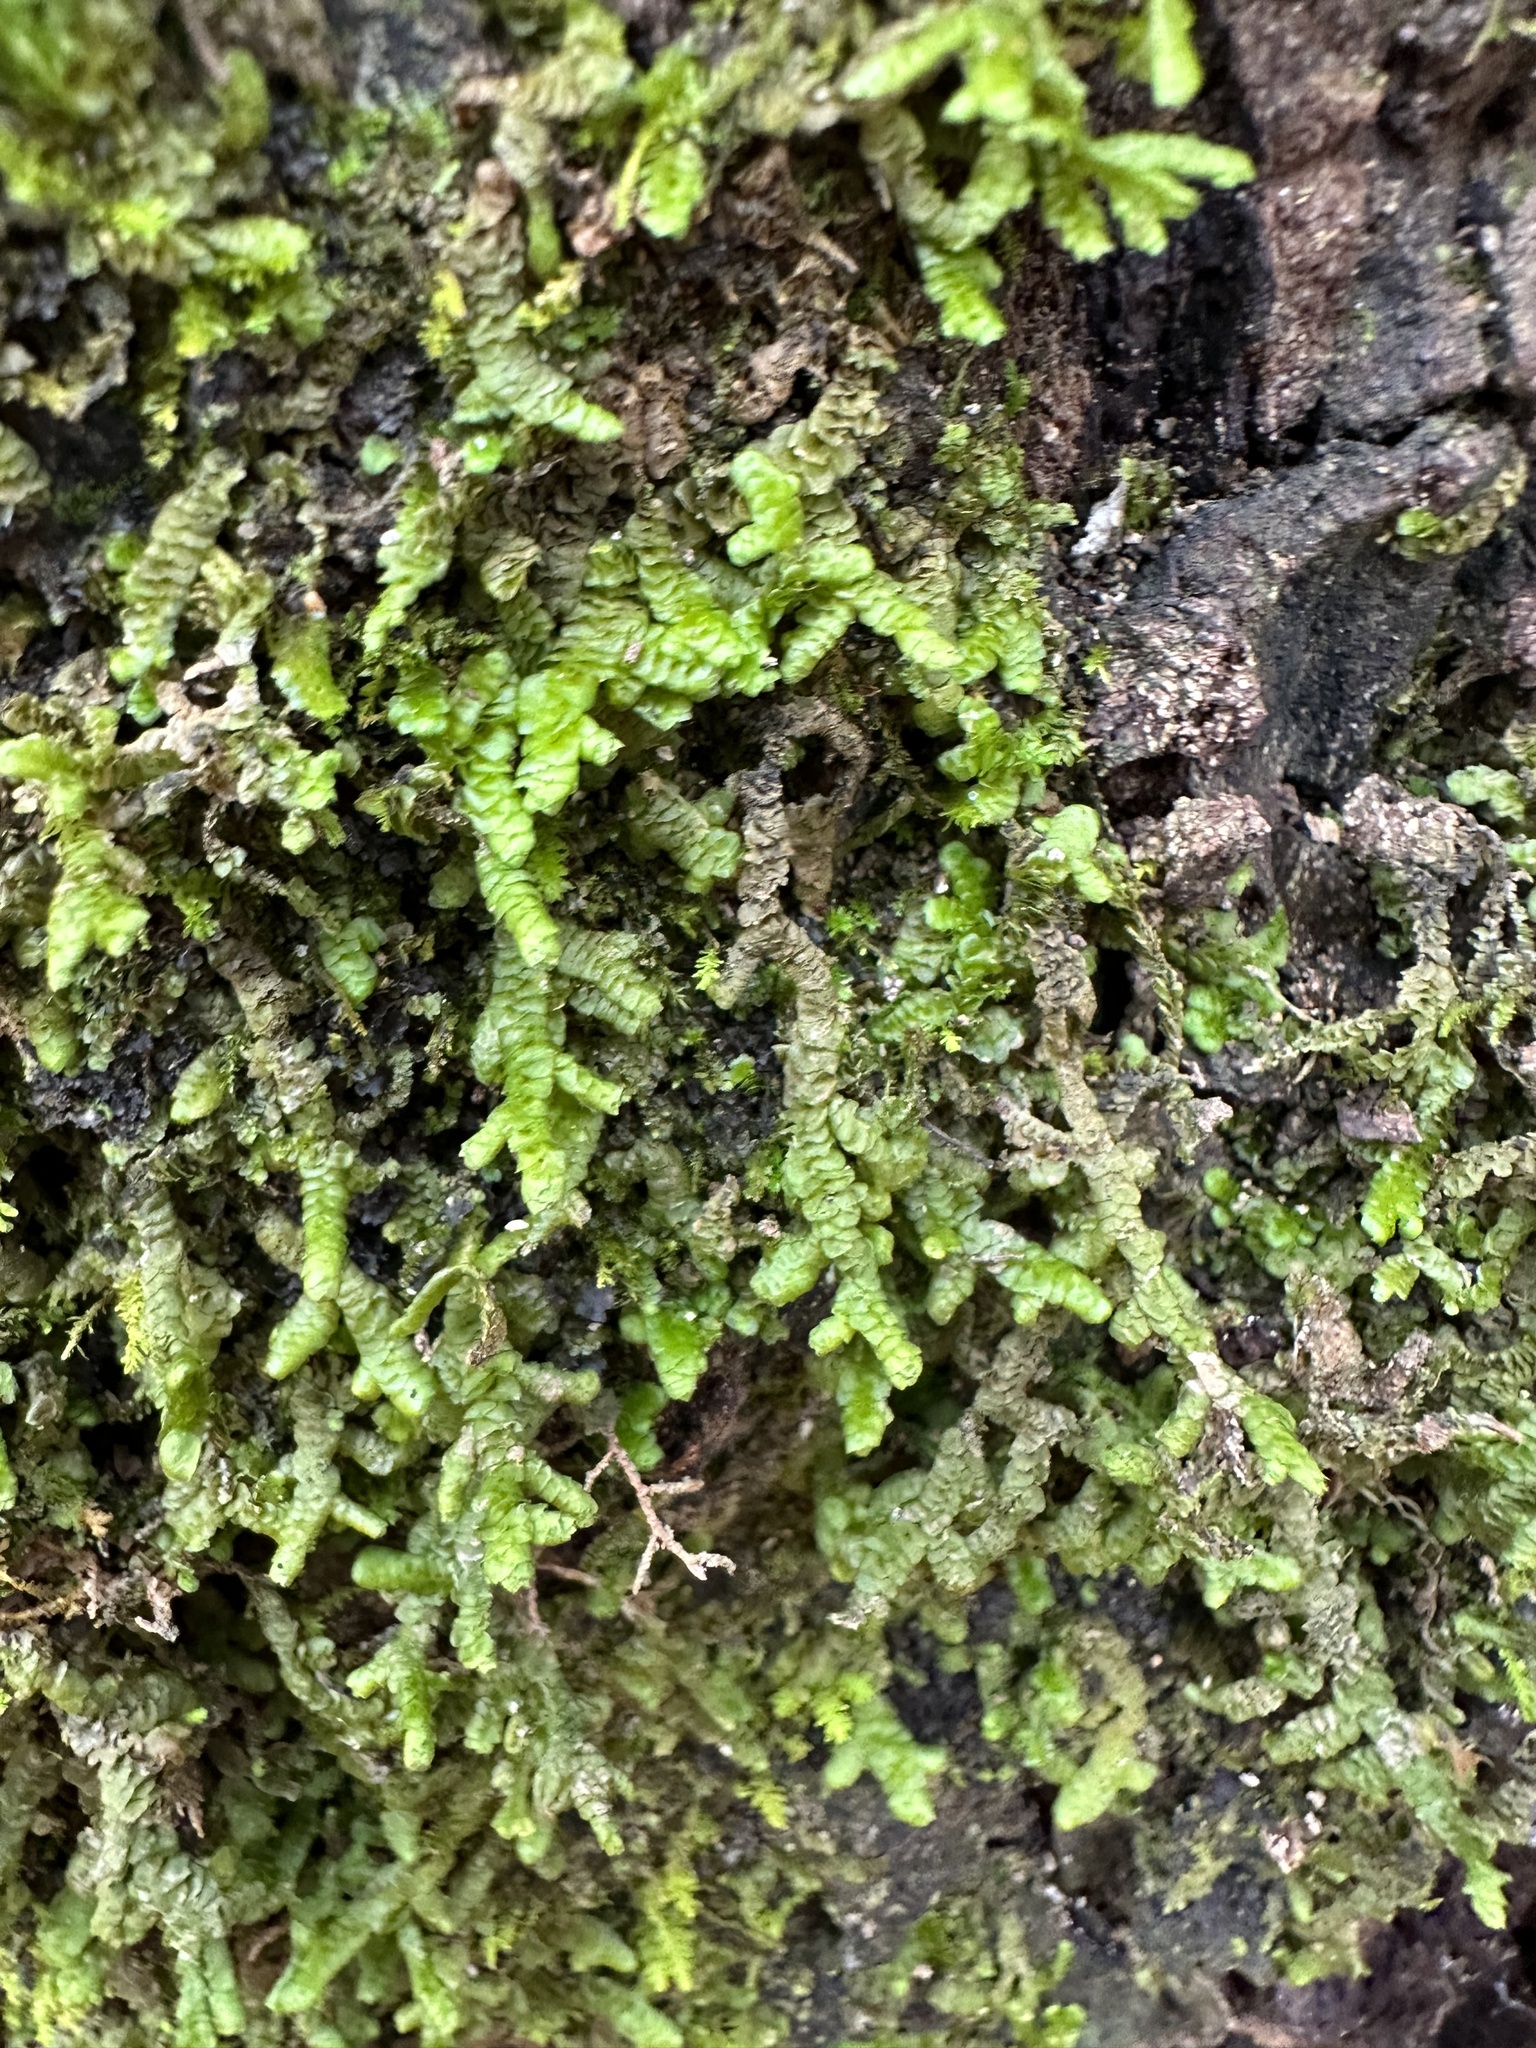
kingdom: Plantae
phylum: Marchantiophyta
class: Jungermanniopsida
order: Porellales
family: Porellaceae
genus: Porella
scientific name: Porella platyphylla
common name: Wall scalewort
